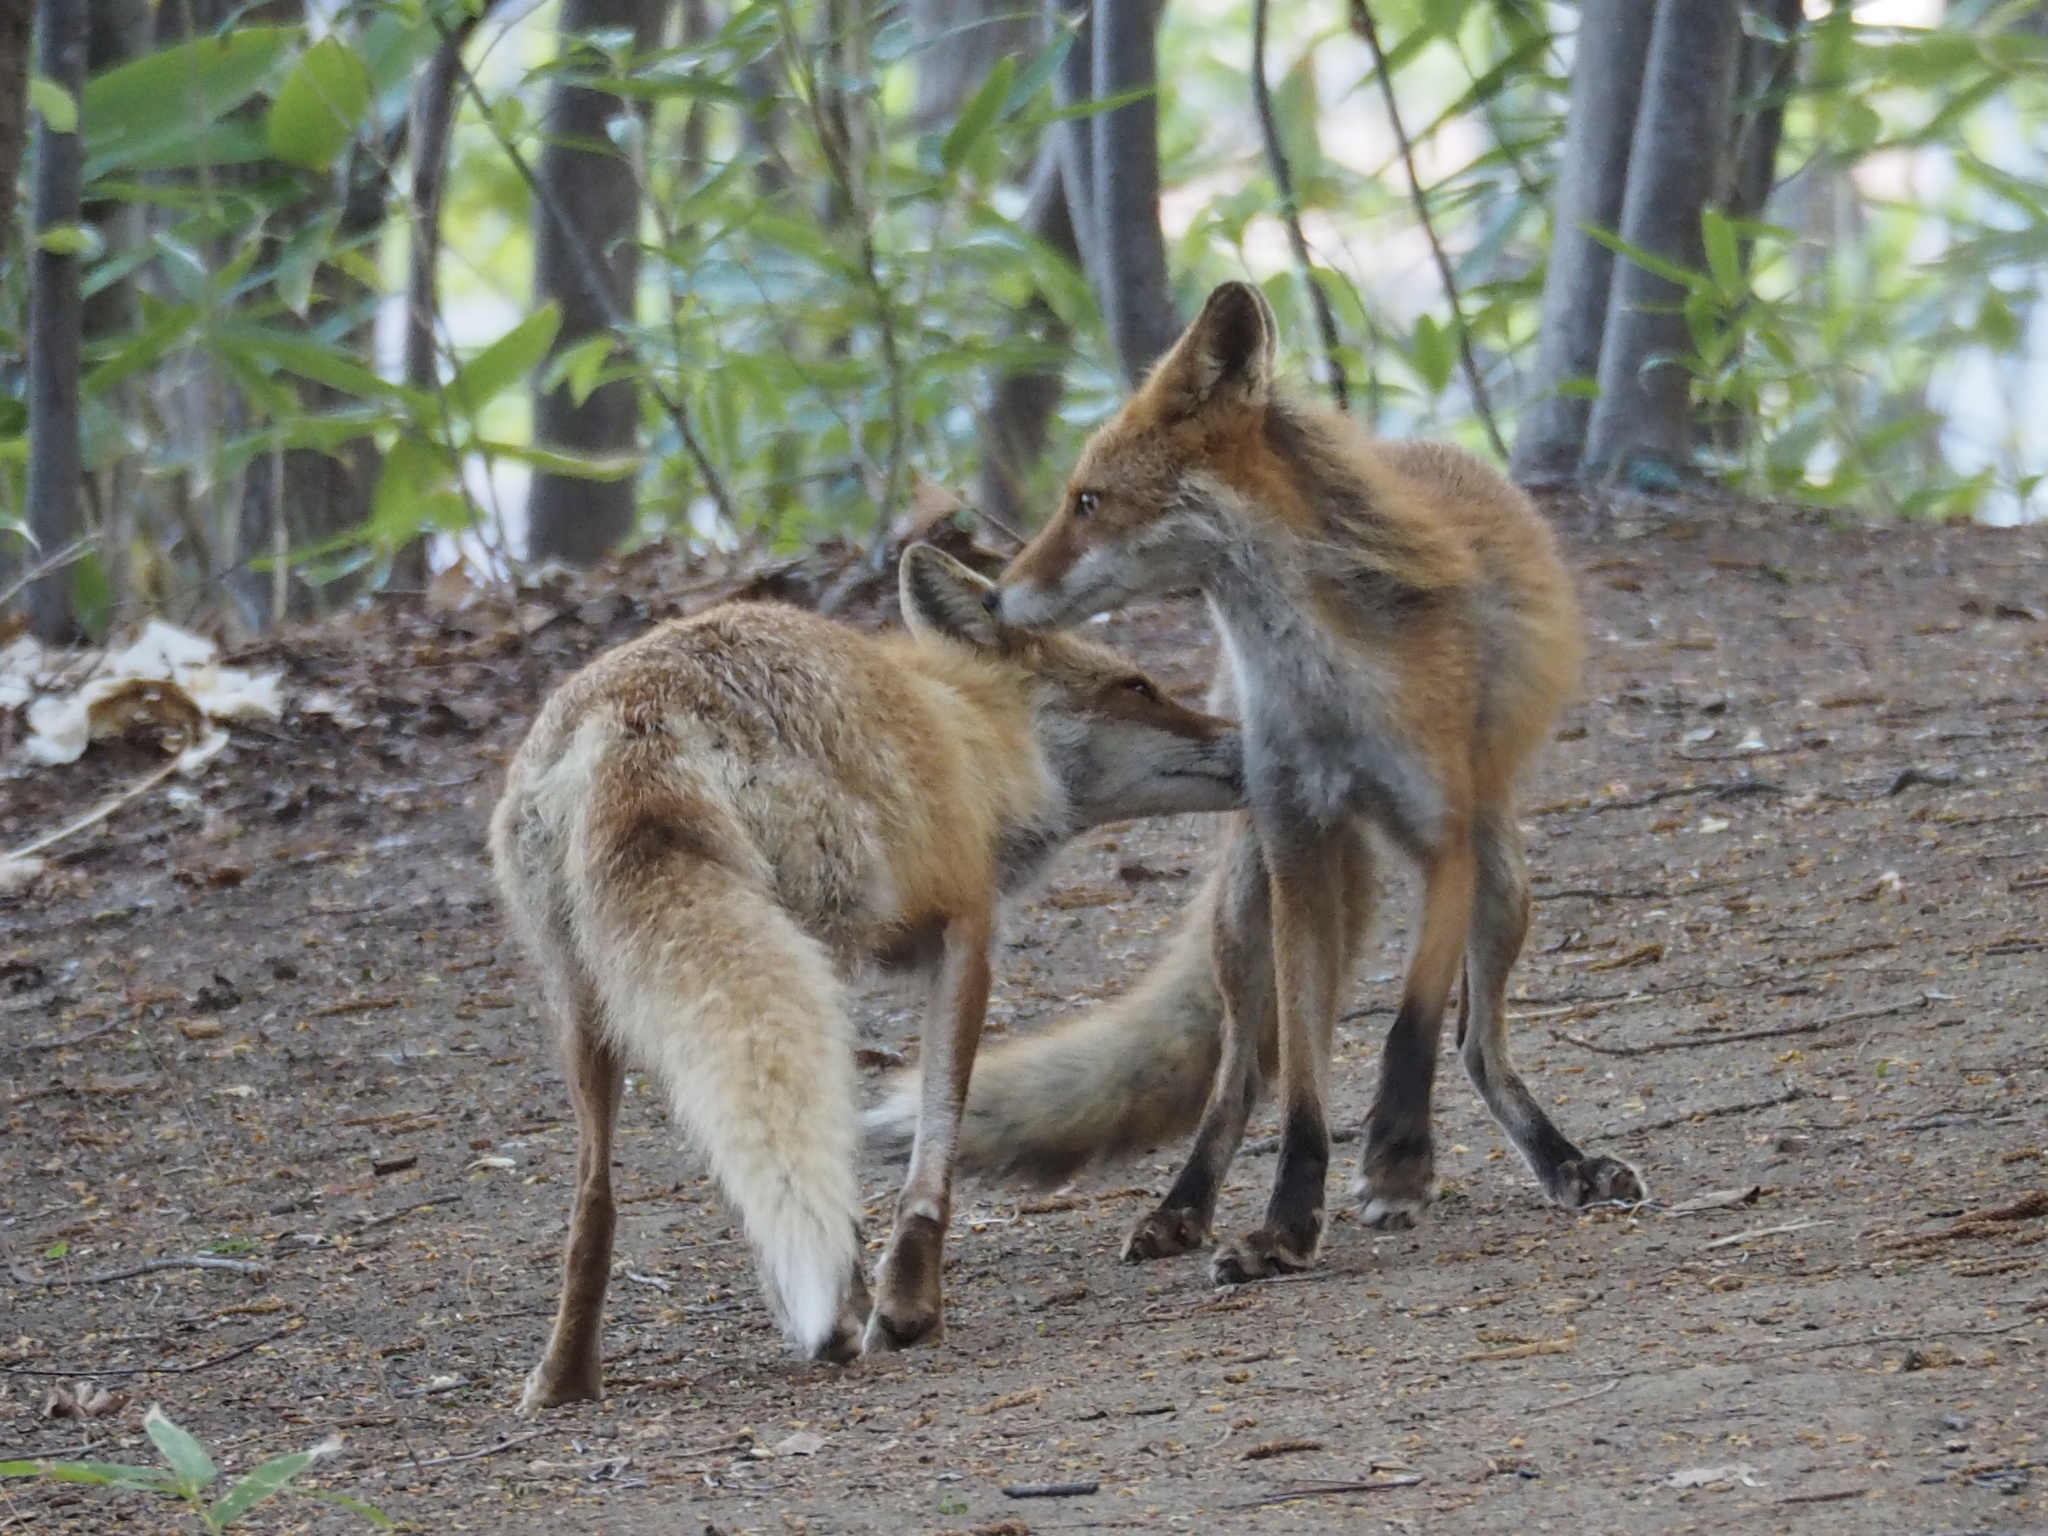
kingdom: Animalia
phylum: Chordata
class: Mammalia
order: Carnivora
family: Canidae
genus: Vulpes
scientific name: Vulpes vulpes
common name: Red fox
